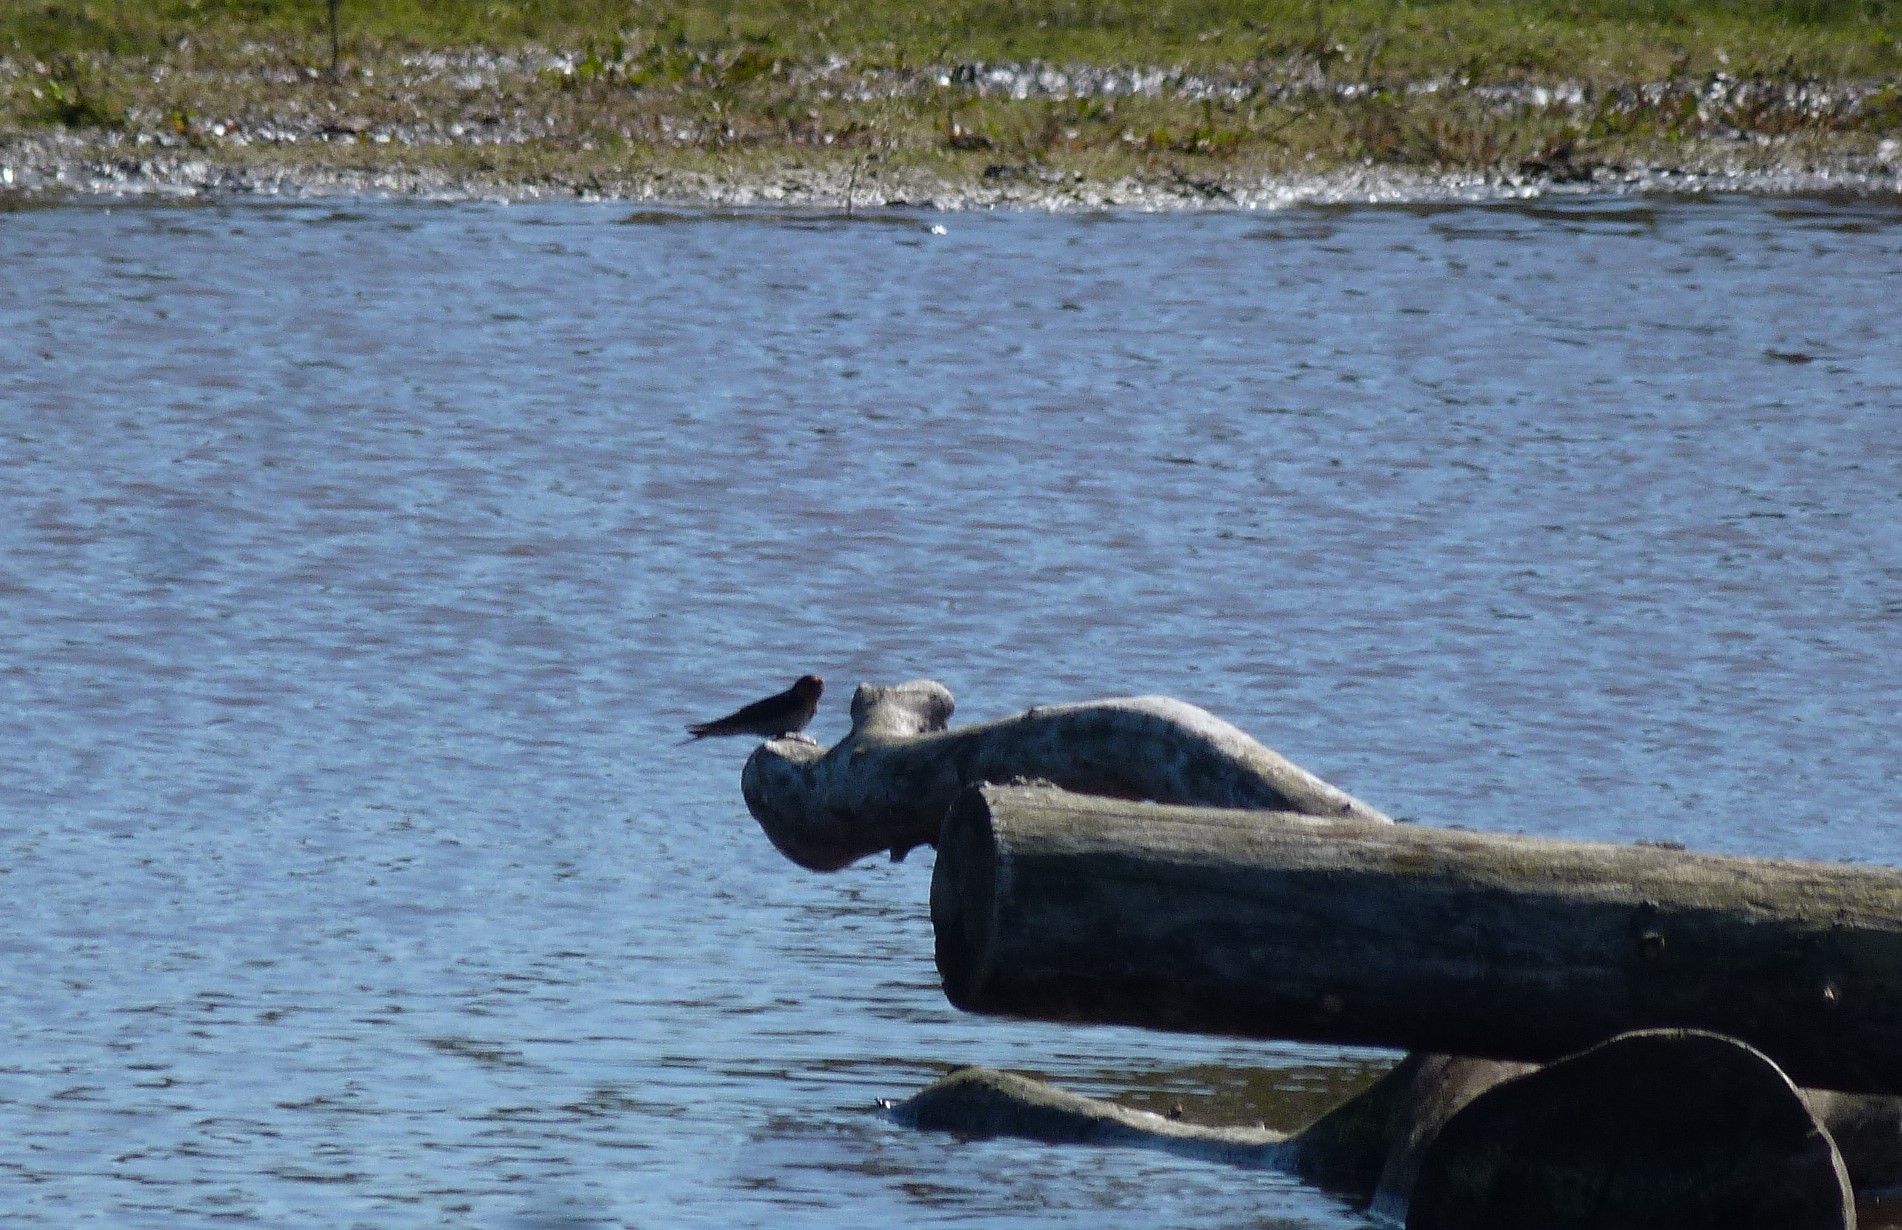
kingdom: Animalia
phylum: Chordata
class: Aves
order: Passeriformes
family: Hirundinidae
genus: Hirundo
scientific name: Hirundo neoxena
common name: Welcome swallow
